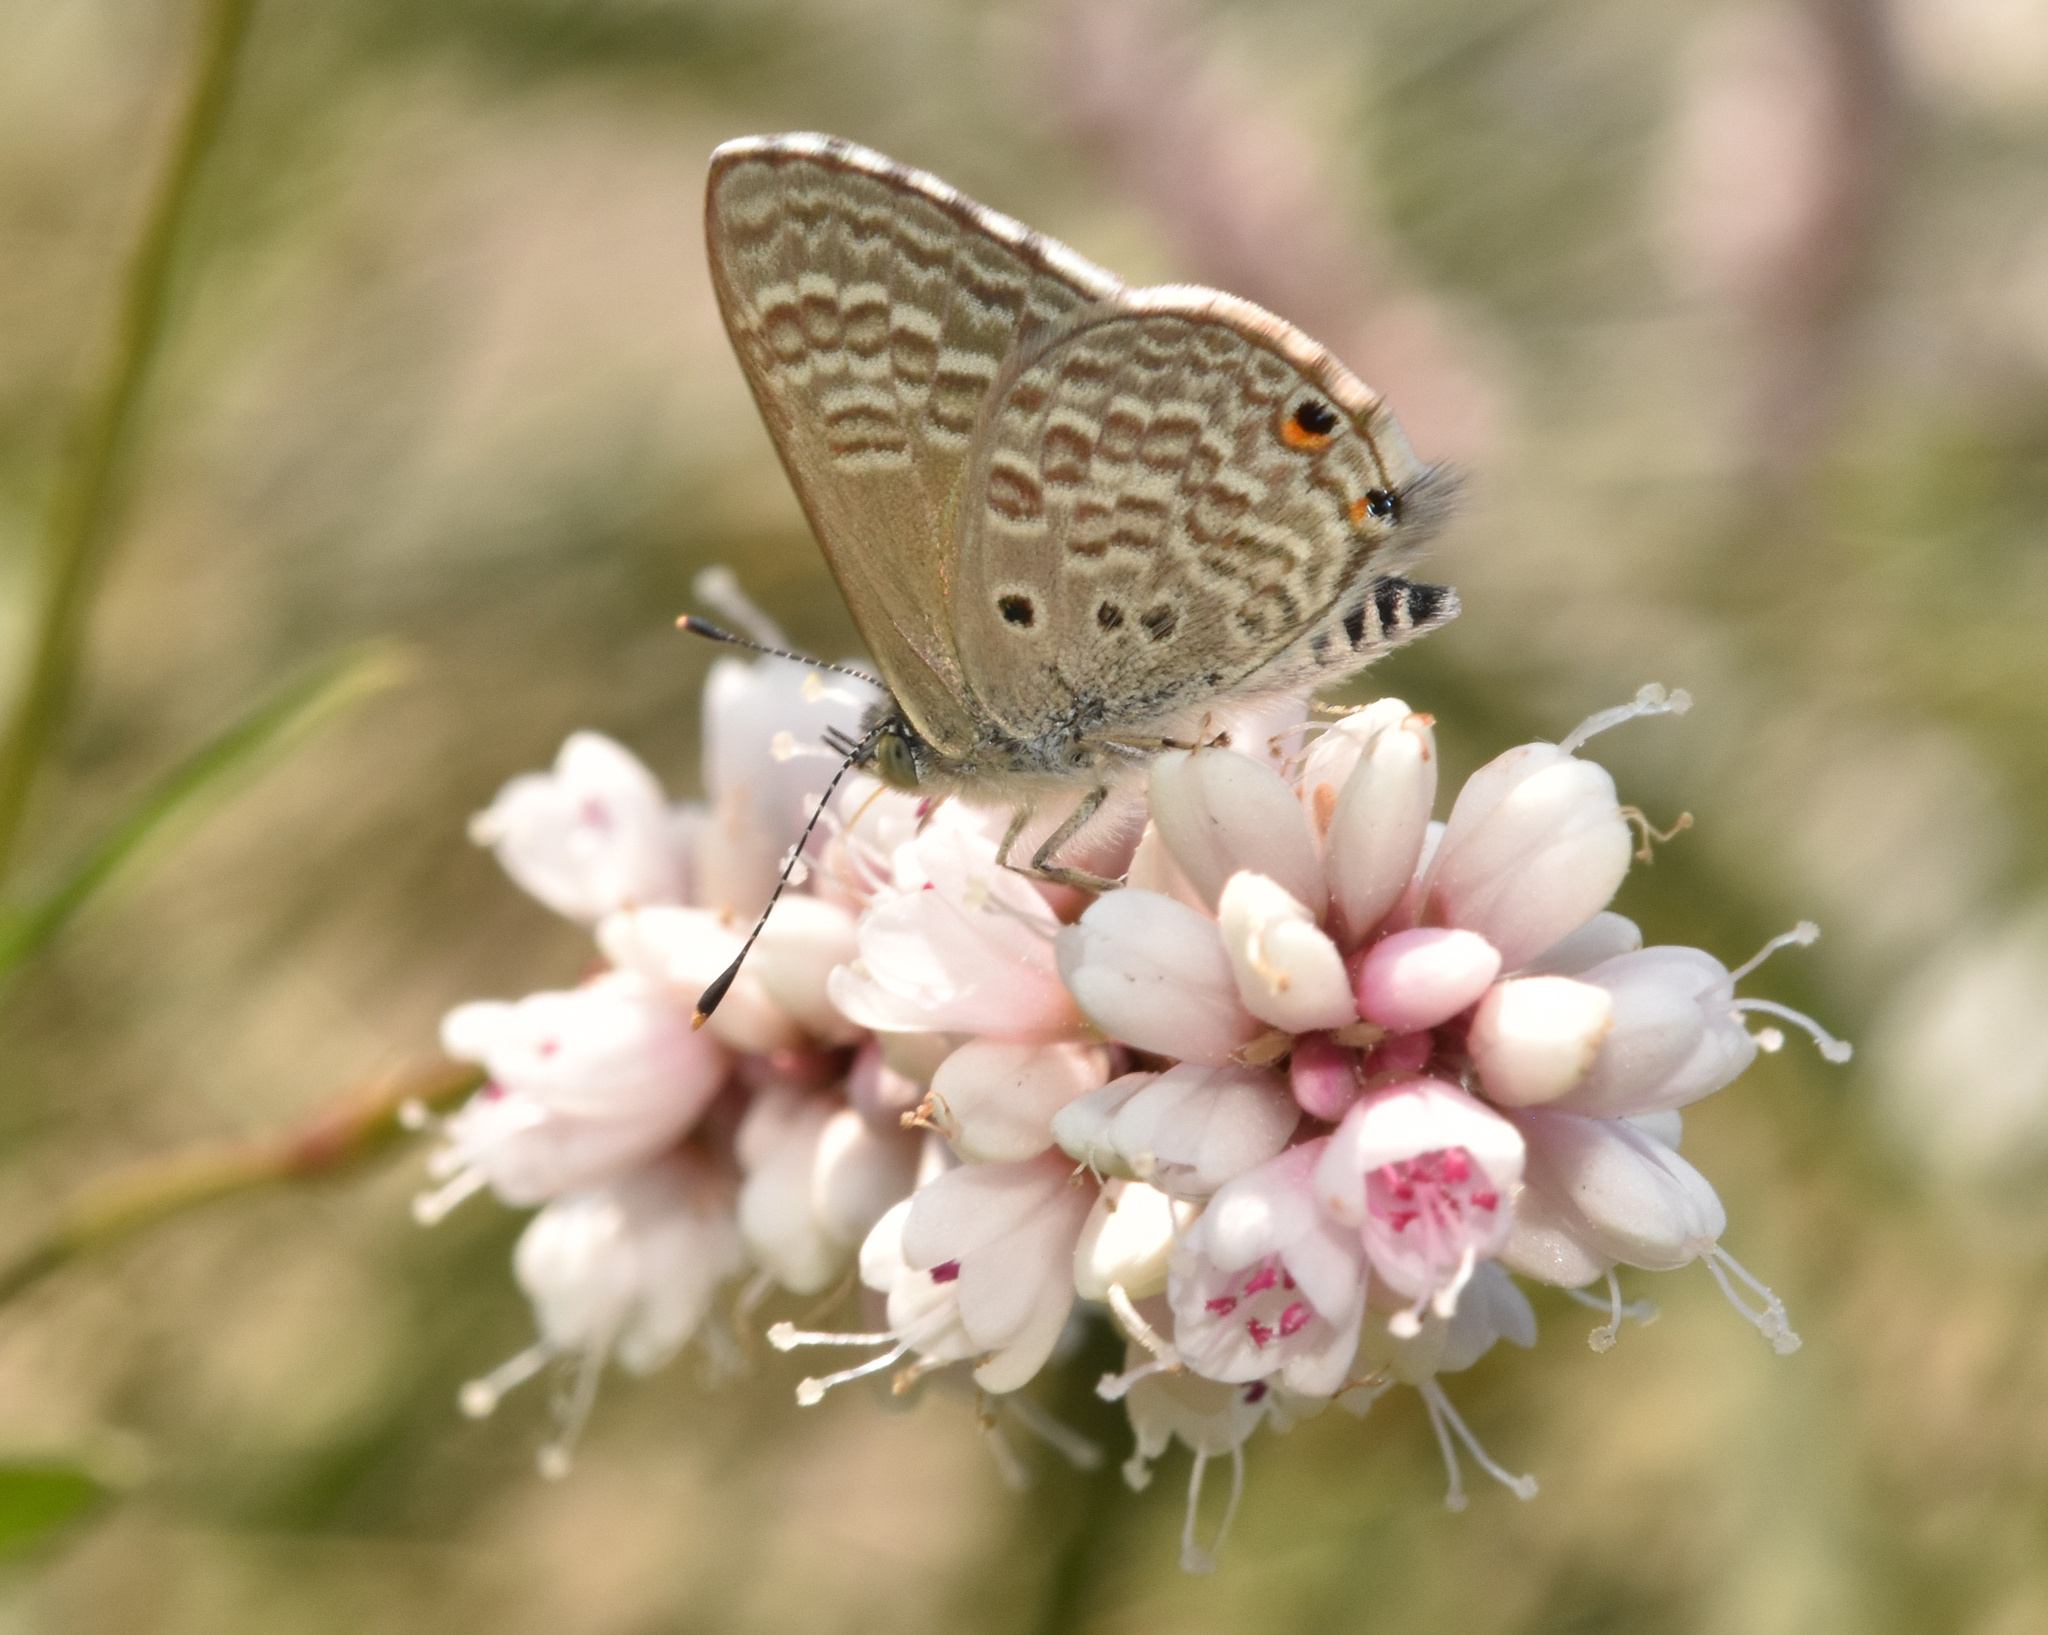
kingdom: Animalia
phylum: Arthropoda
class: Insecta
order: Lepidoptera
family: Lycaenidae
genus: Anthene
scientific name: Anthene dulcis
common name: Mashuna hairtail
